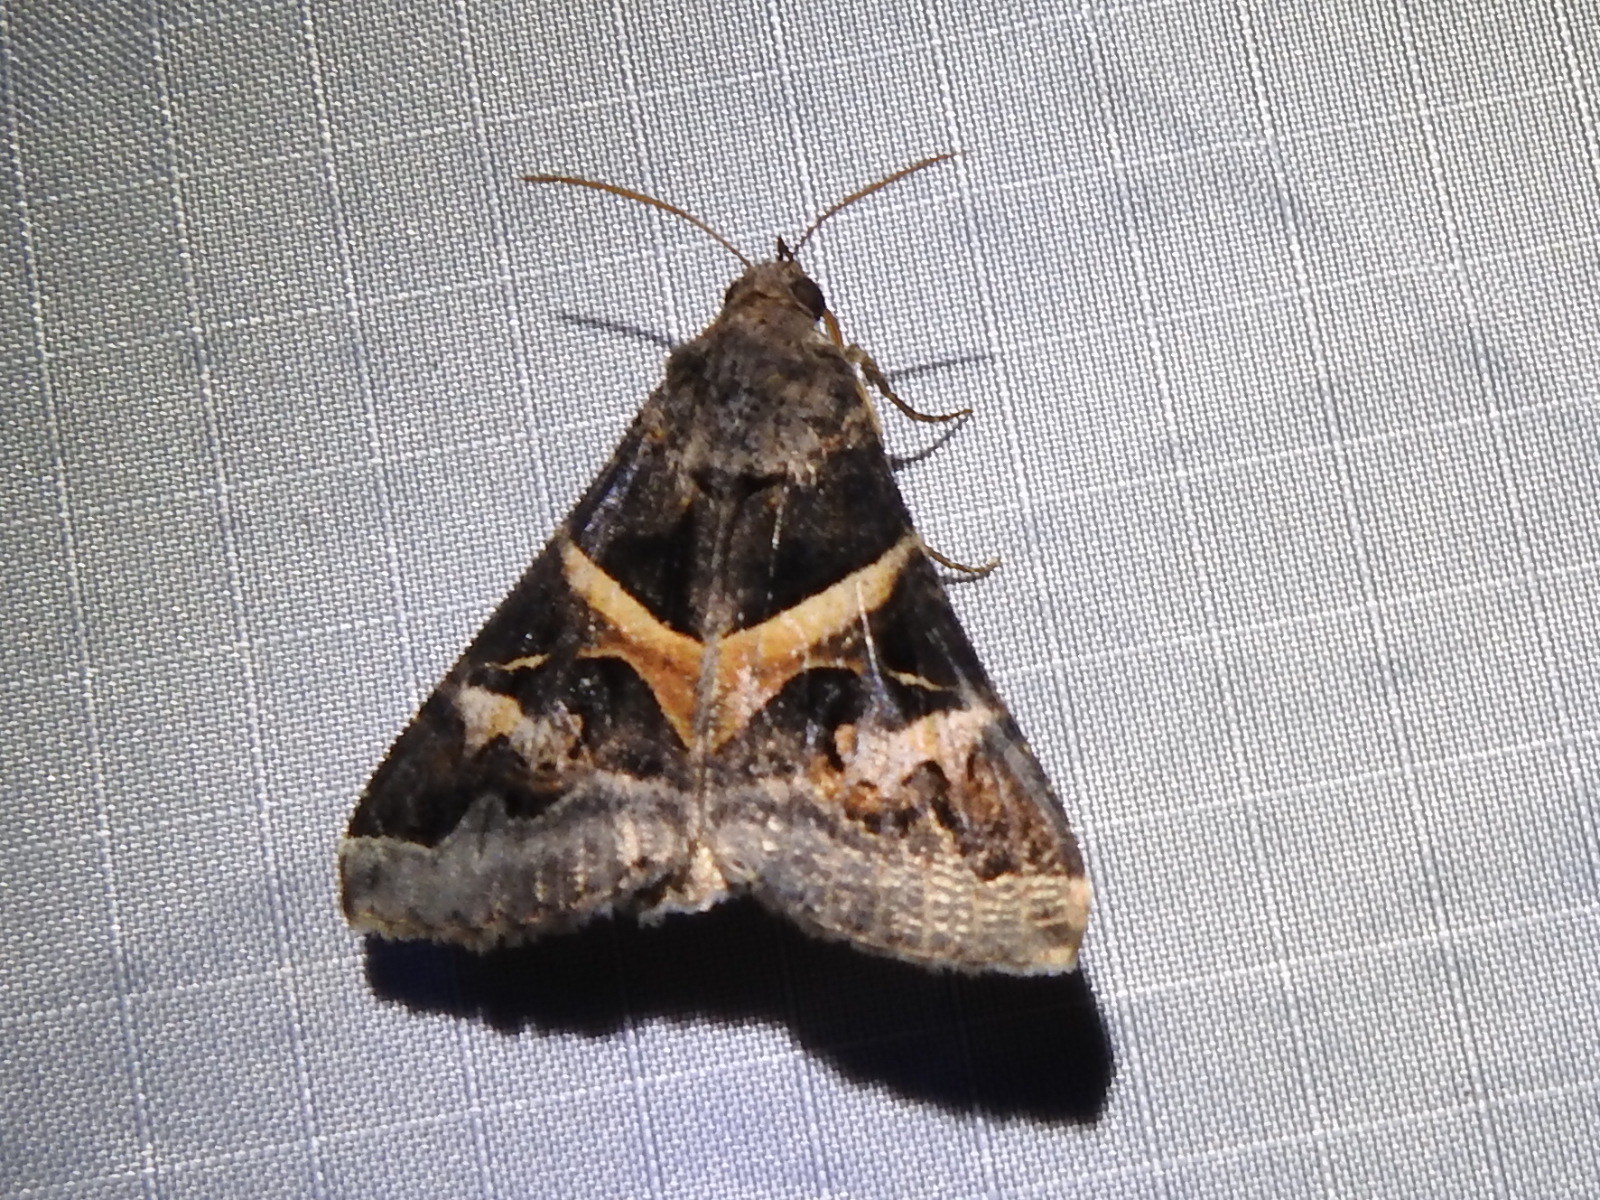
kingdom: Animalia
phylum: Arthropoda
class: Insecta
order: Lepidoptera
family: Erebidae
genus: Melipotis
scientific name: Melipotis indomita
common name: Moth
